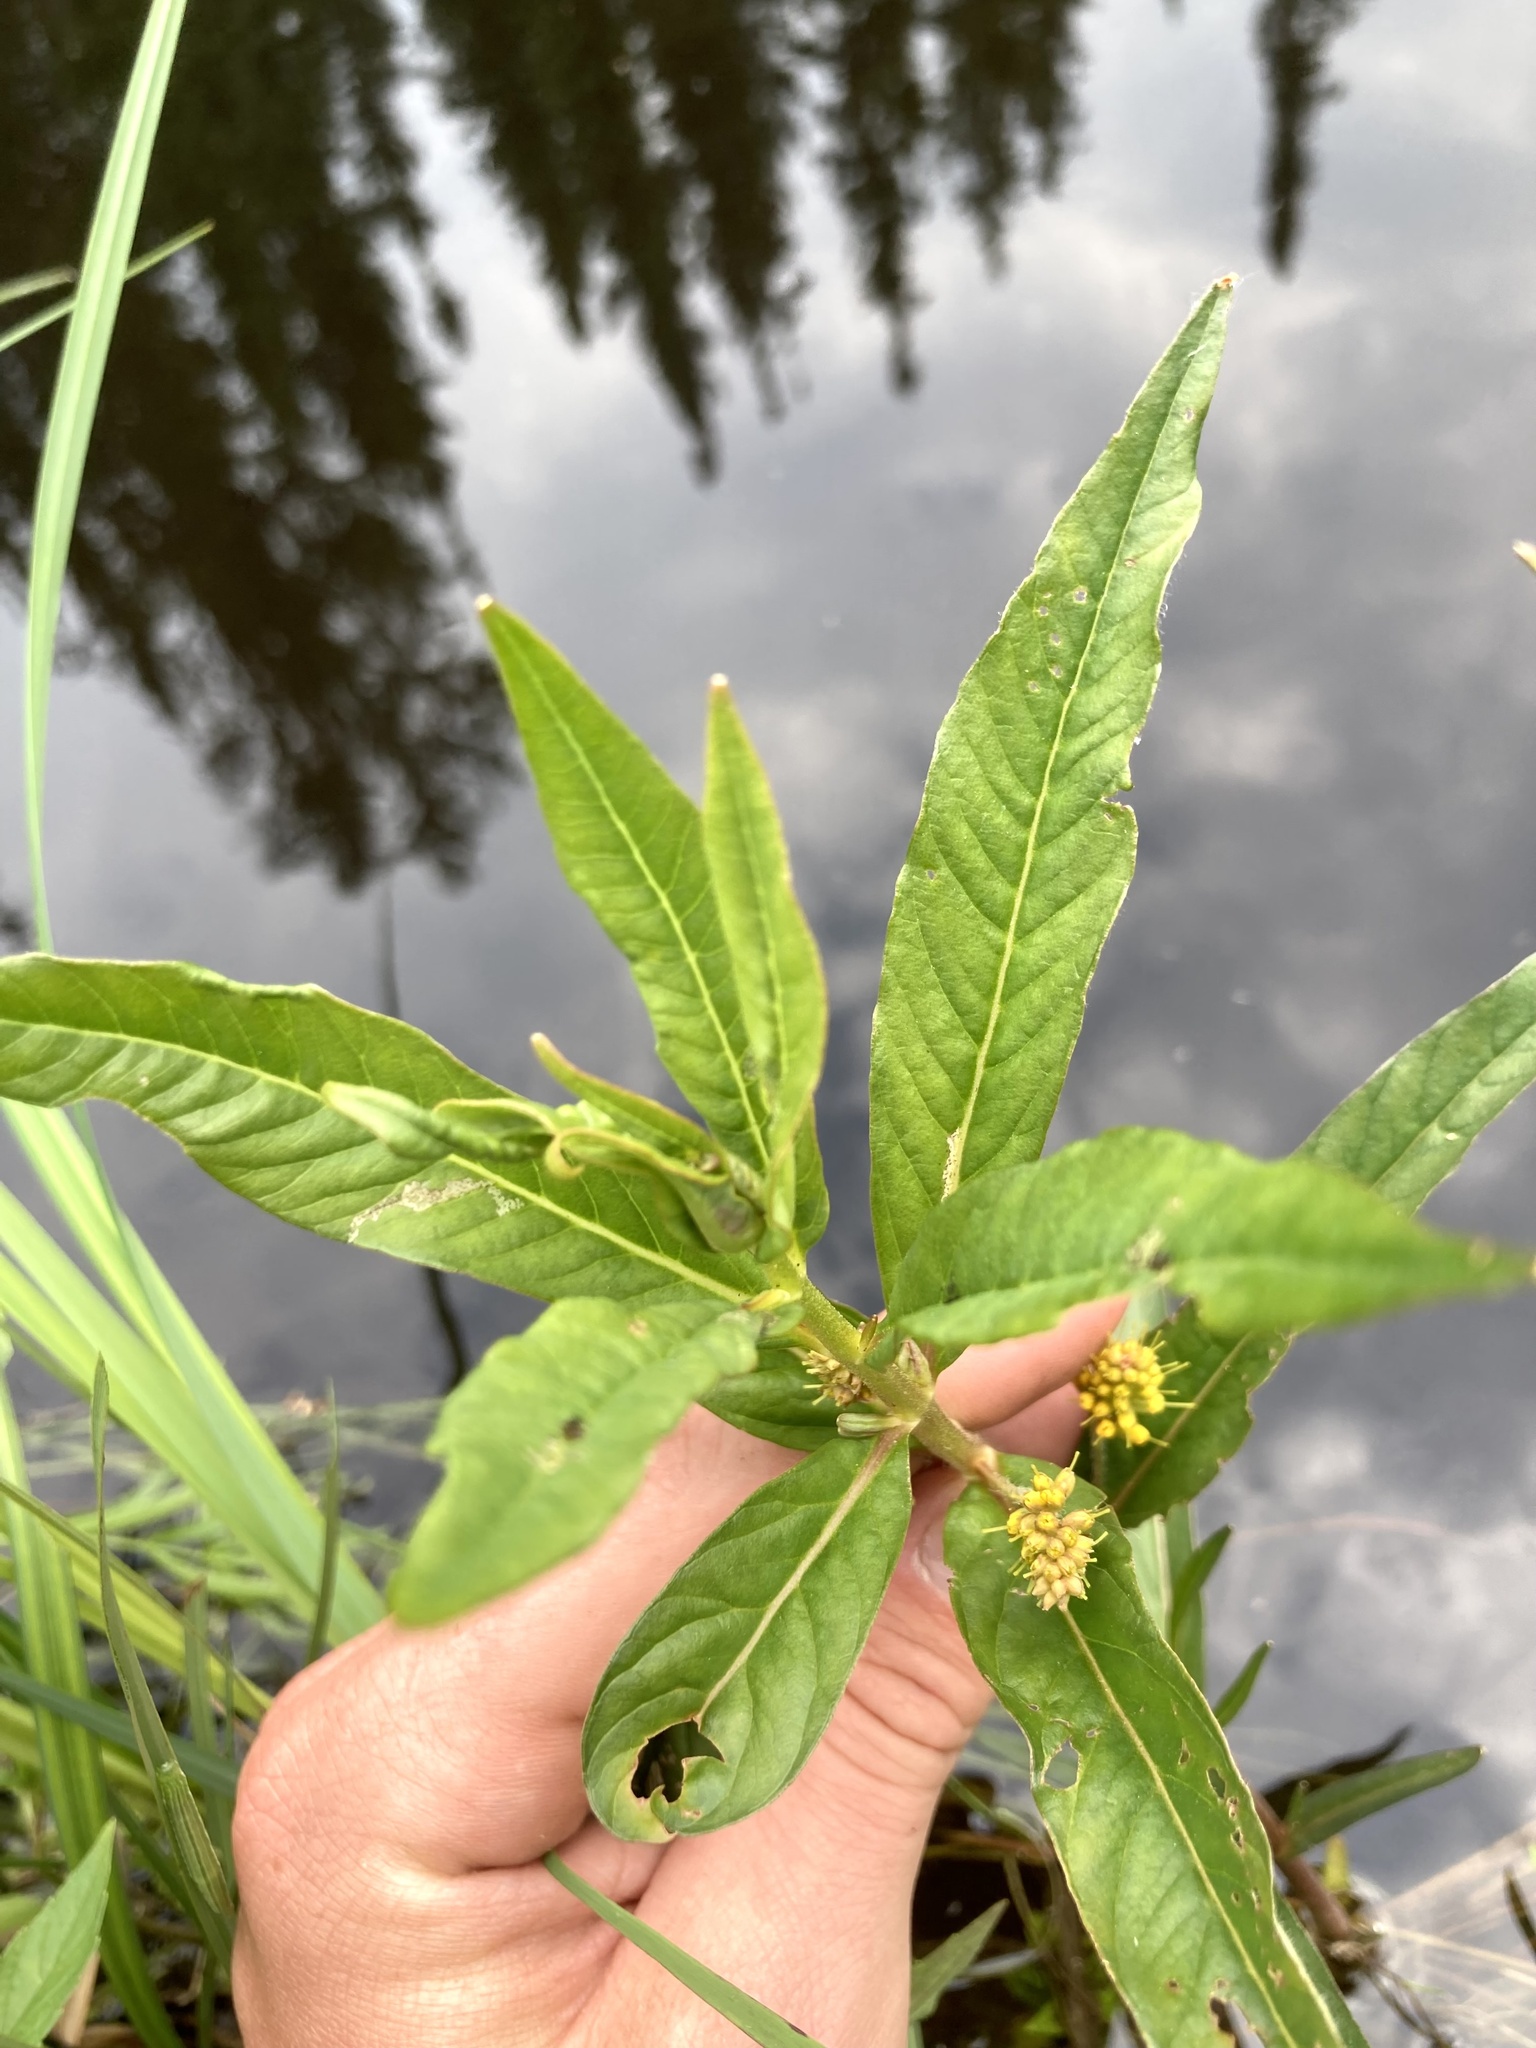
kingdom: Plantae
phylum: Tracheophyta
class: Magnoliopsida
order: Ericales
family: Primulaceae
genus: Lysimachia
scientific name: Lysimachia thyrsiflora
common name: Tufted loosestrife
